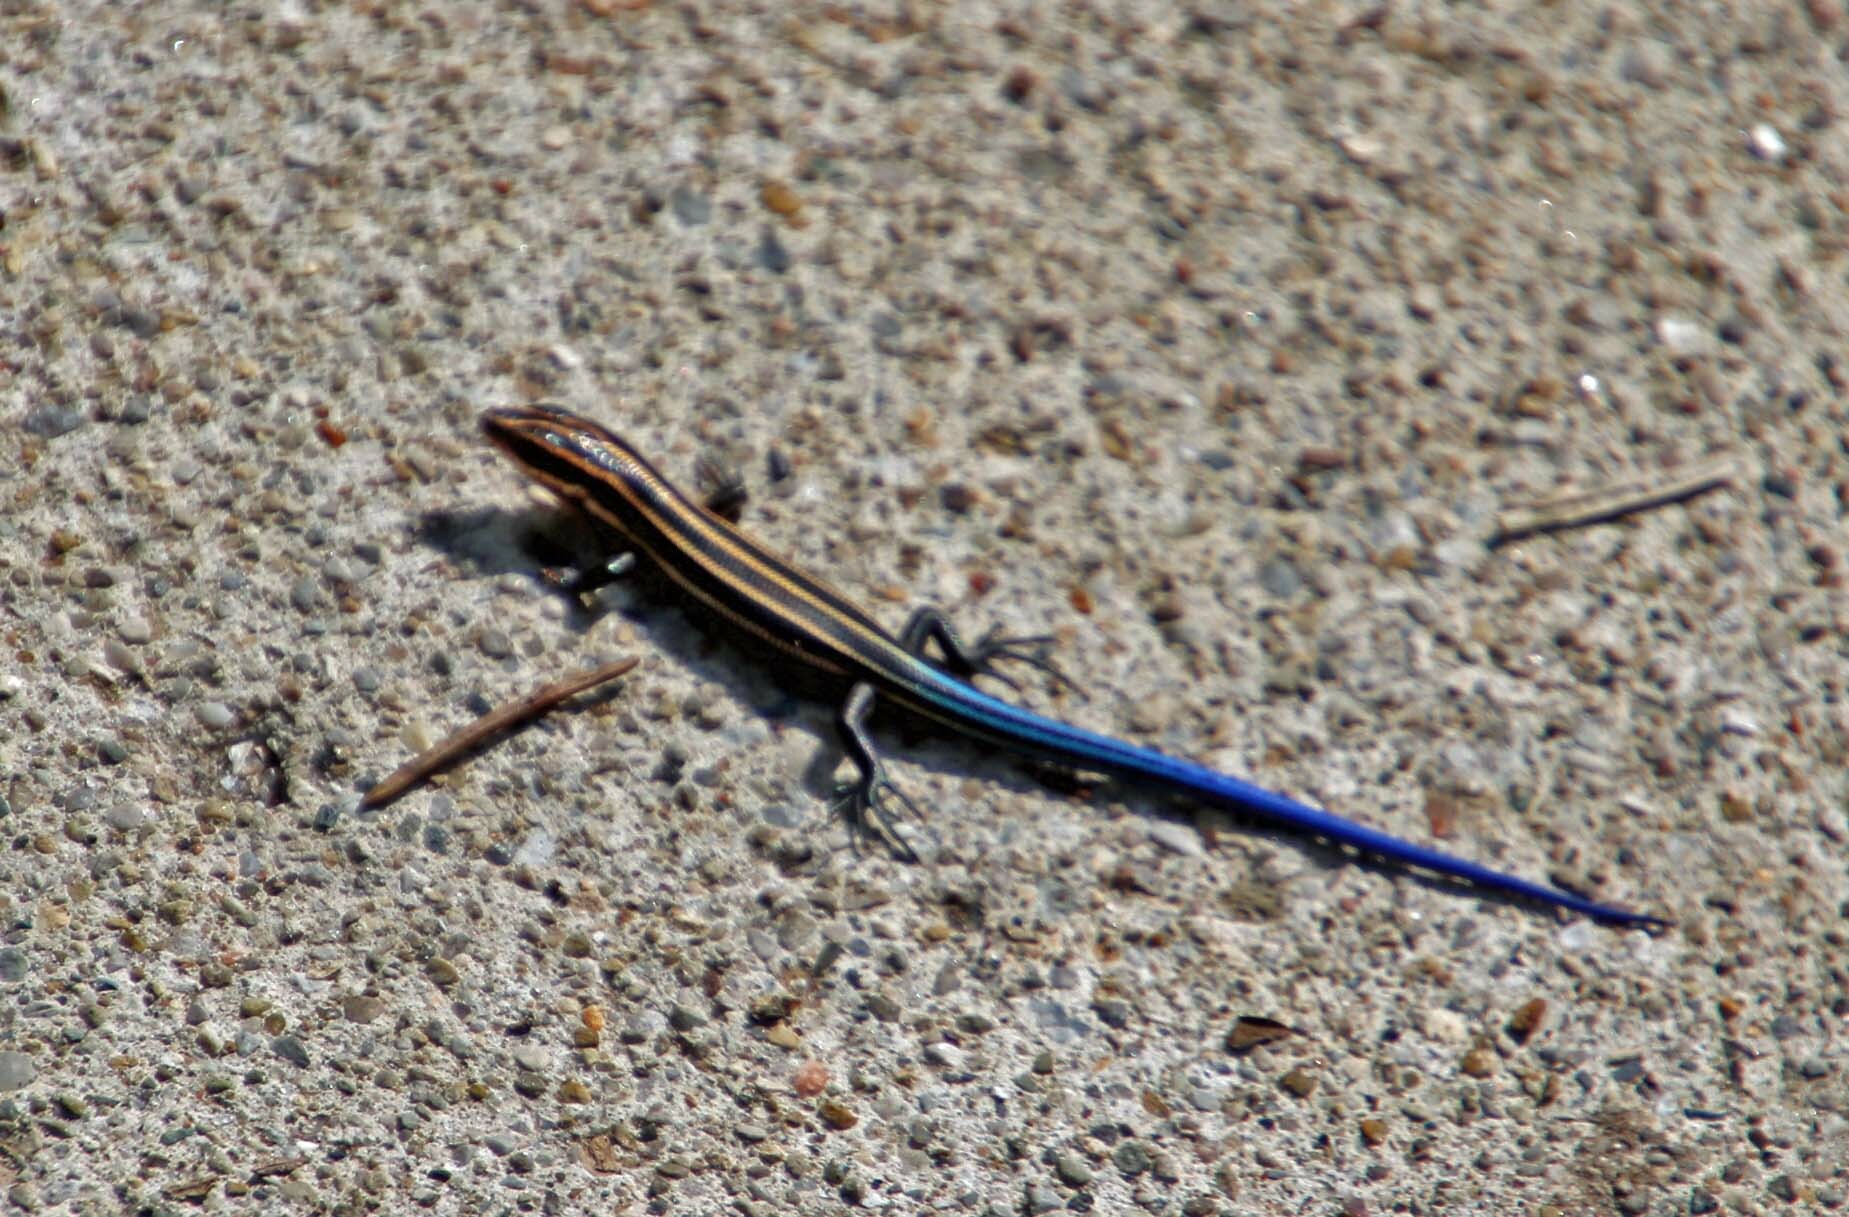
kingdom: Animalia
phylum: Chordata
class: Squamata
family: Scincidae
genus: Plestiodon
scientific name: Plestiodon fasciatus
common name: Five-lined skink
